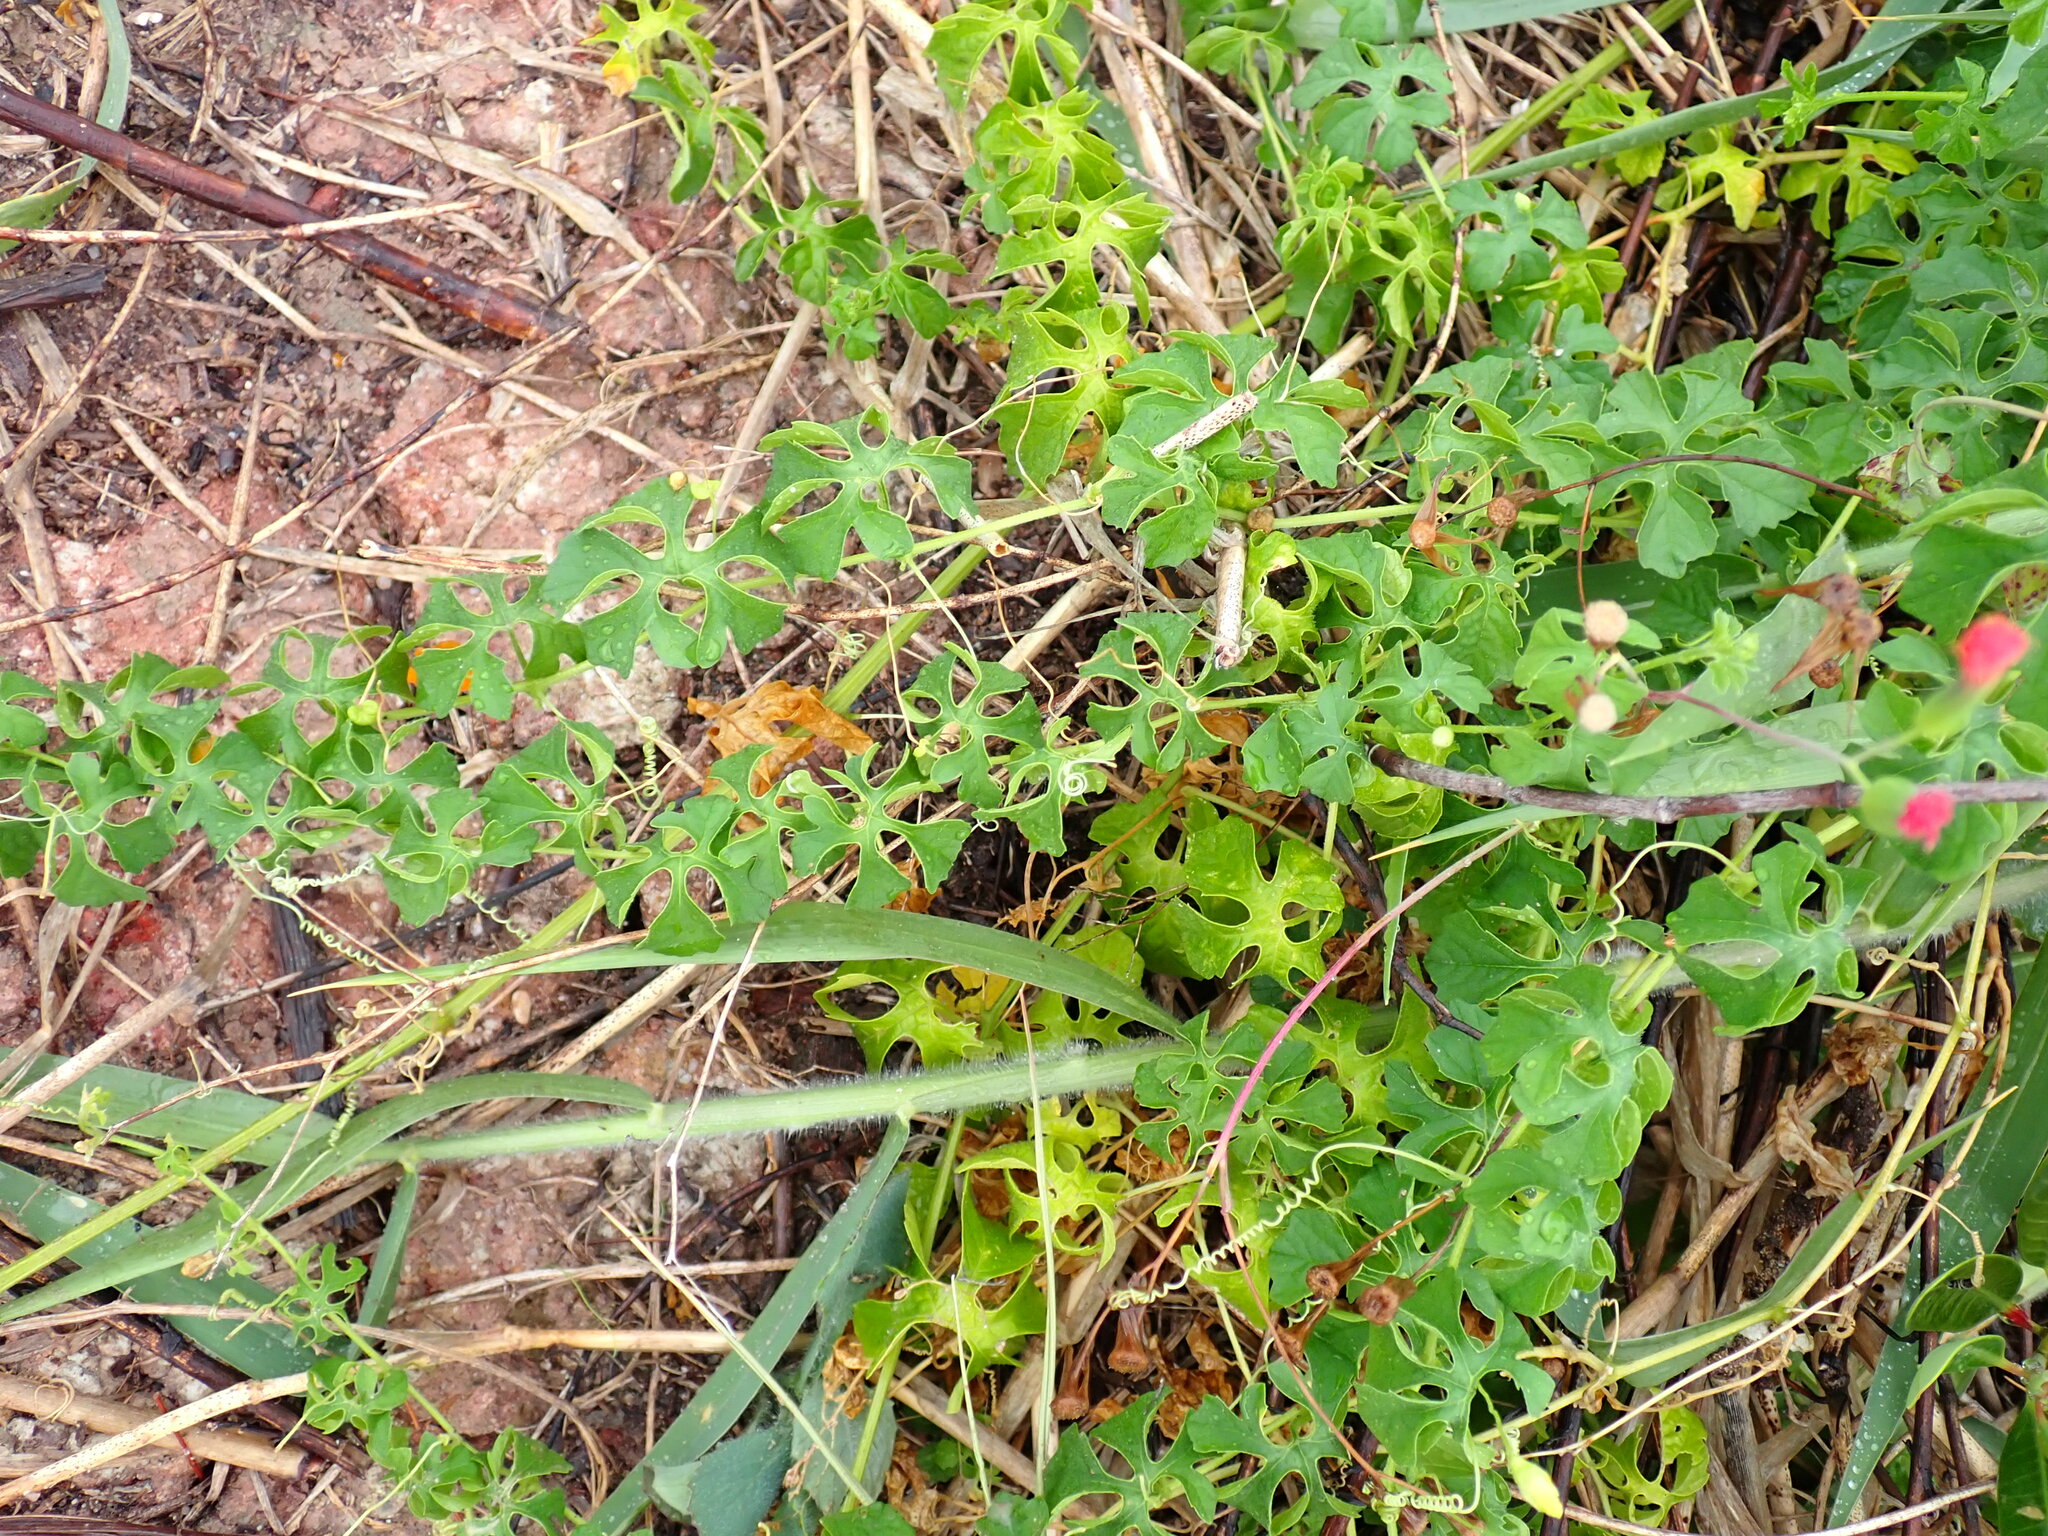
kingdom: Plantae
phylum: Tracheophyta
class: Magnoliopsida
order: Cucurbitales
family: Cucurbitaceae
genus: Momordica
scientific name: Momordica charantia
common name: Balsampear
